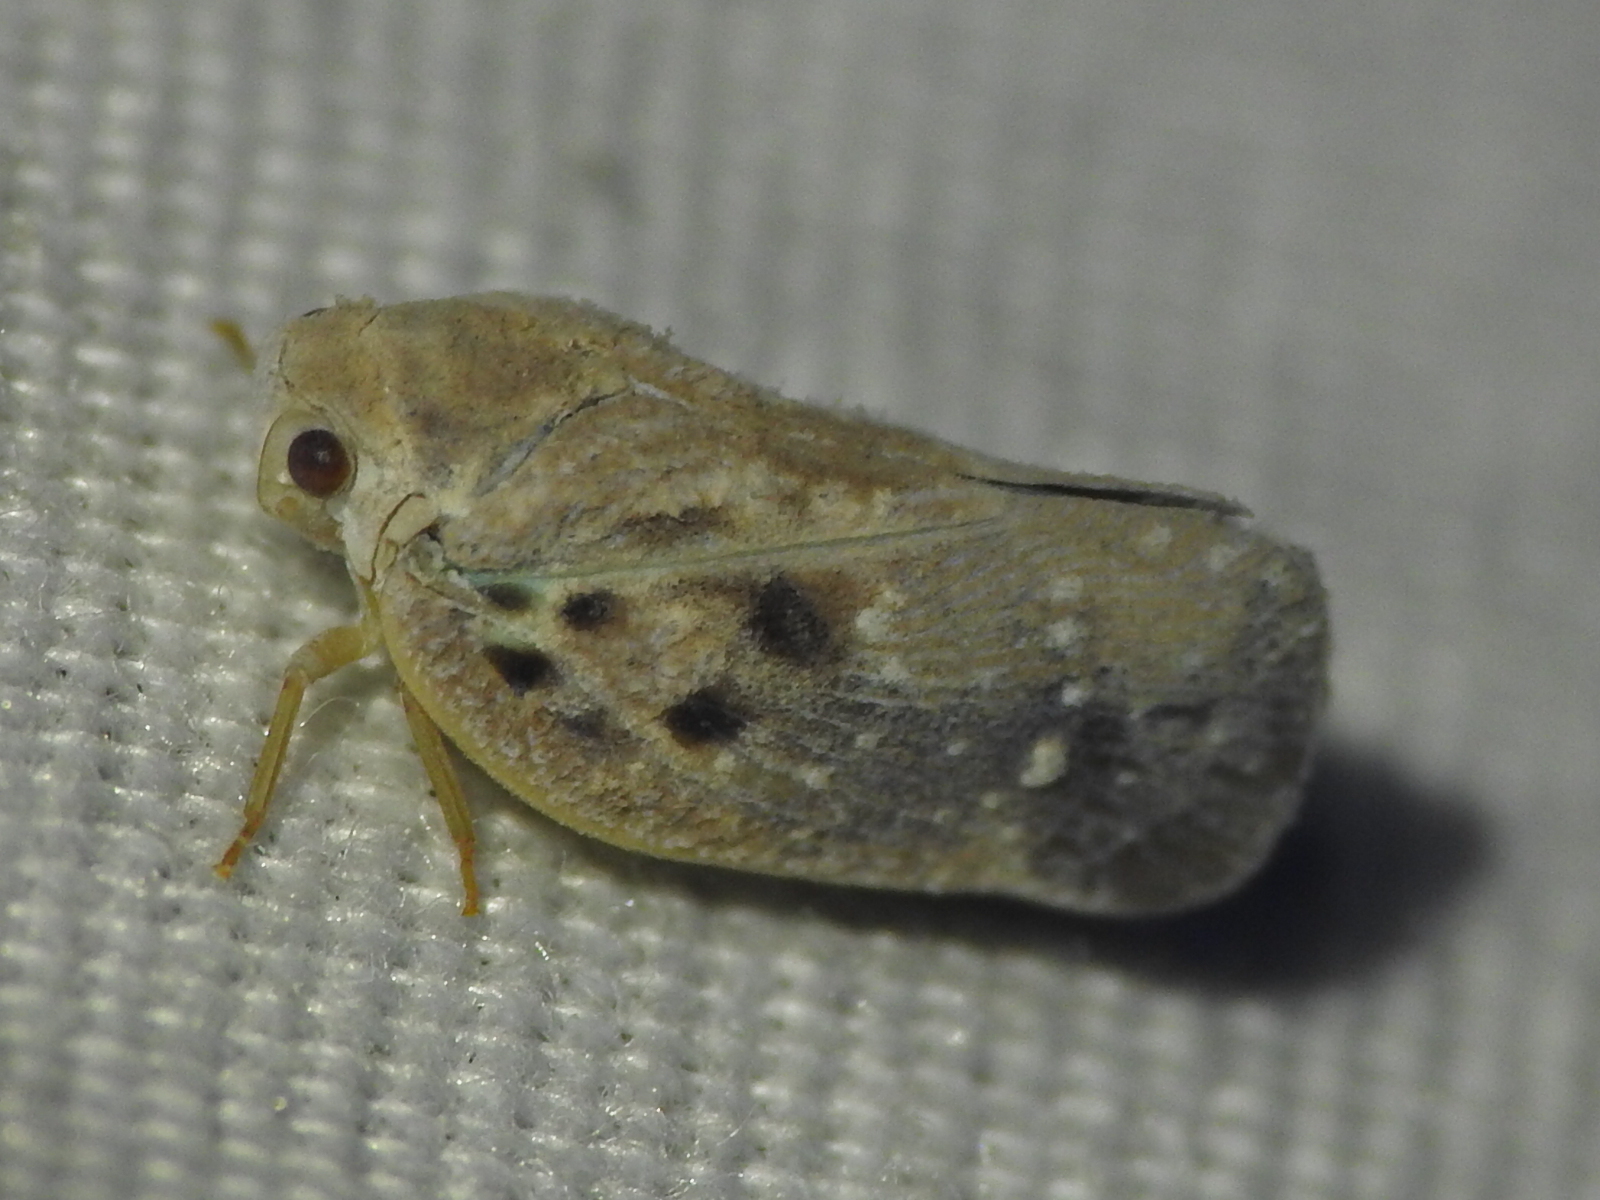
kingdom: Animalia
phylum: Arthropoda
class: Insecta
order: Hemiptera
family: Flatidae
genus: Metcalfa
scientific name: Metcalfa pruinosa
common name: Citrus flatid planthopper
